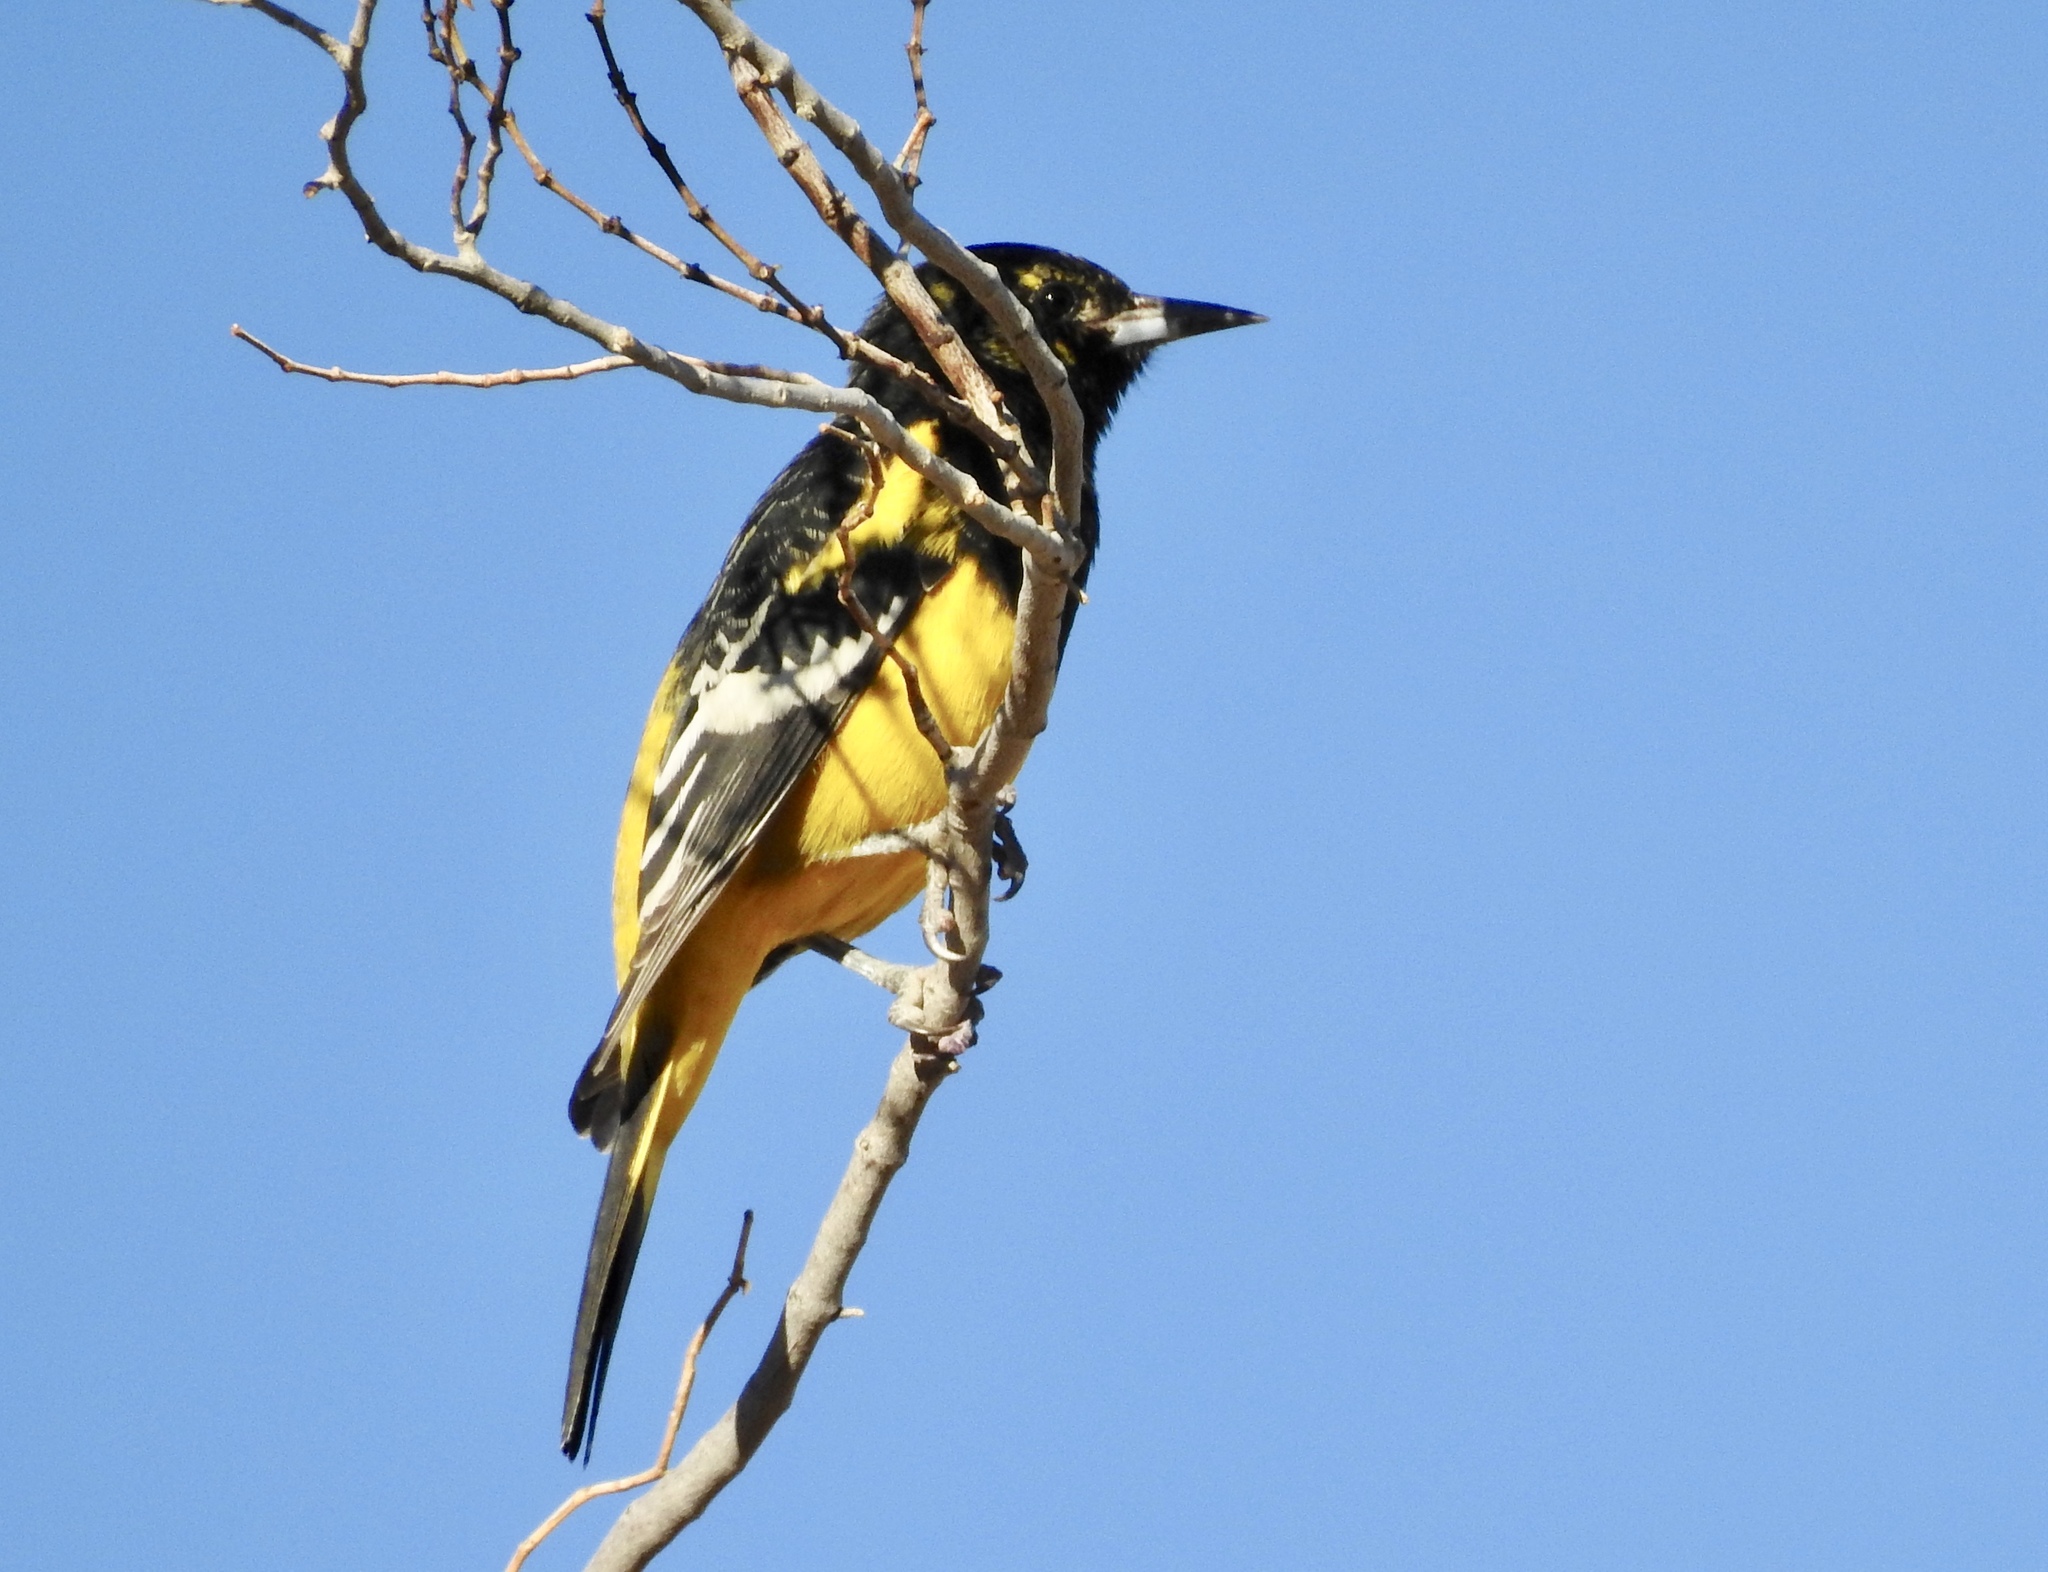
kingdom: Animalia
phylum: Chordata
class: Aves
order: Passeriformes
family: Icteridae
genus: Icterus
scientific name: Icterus parisorum
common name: Scott's oriole
